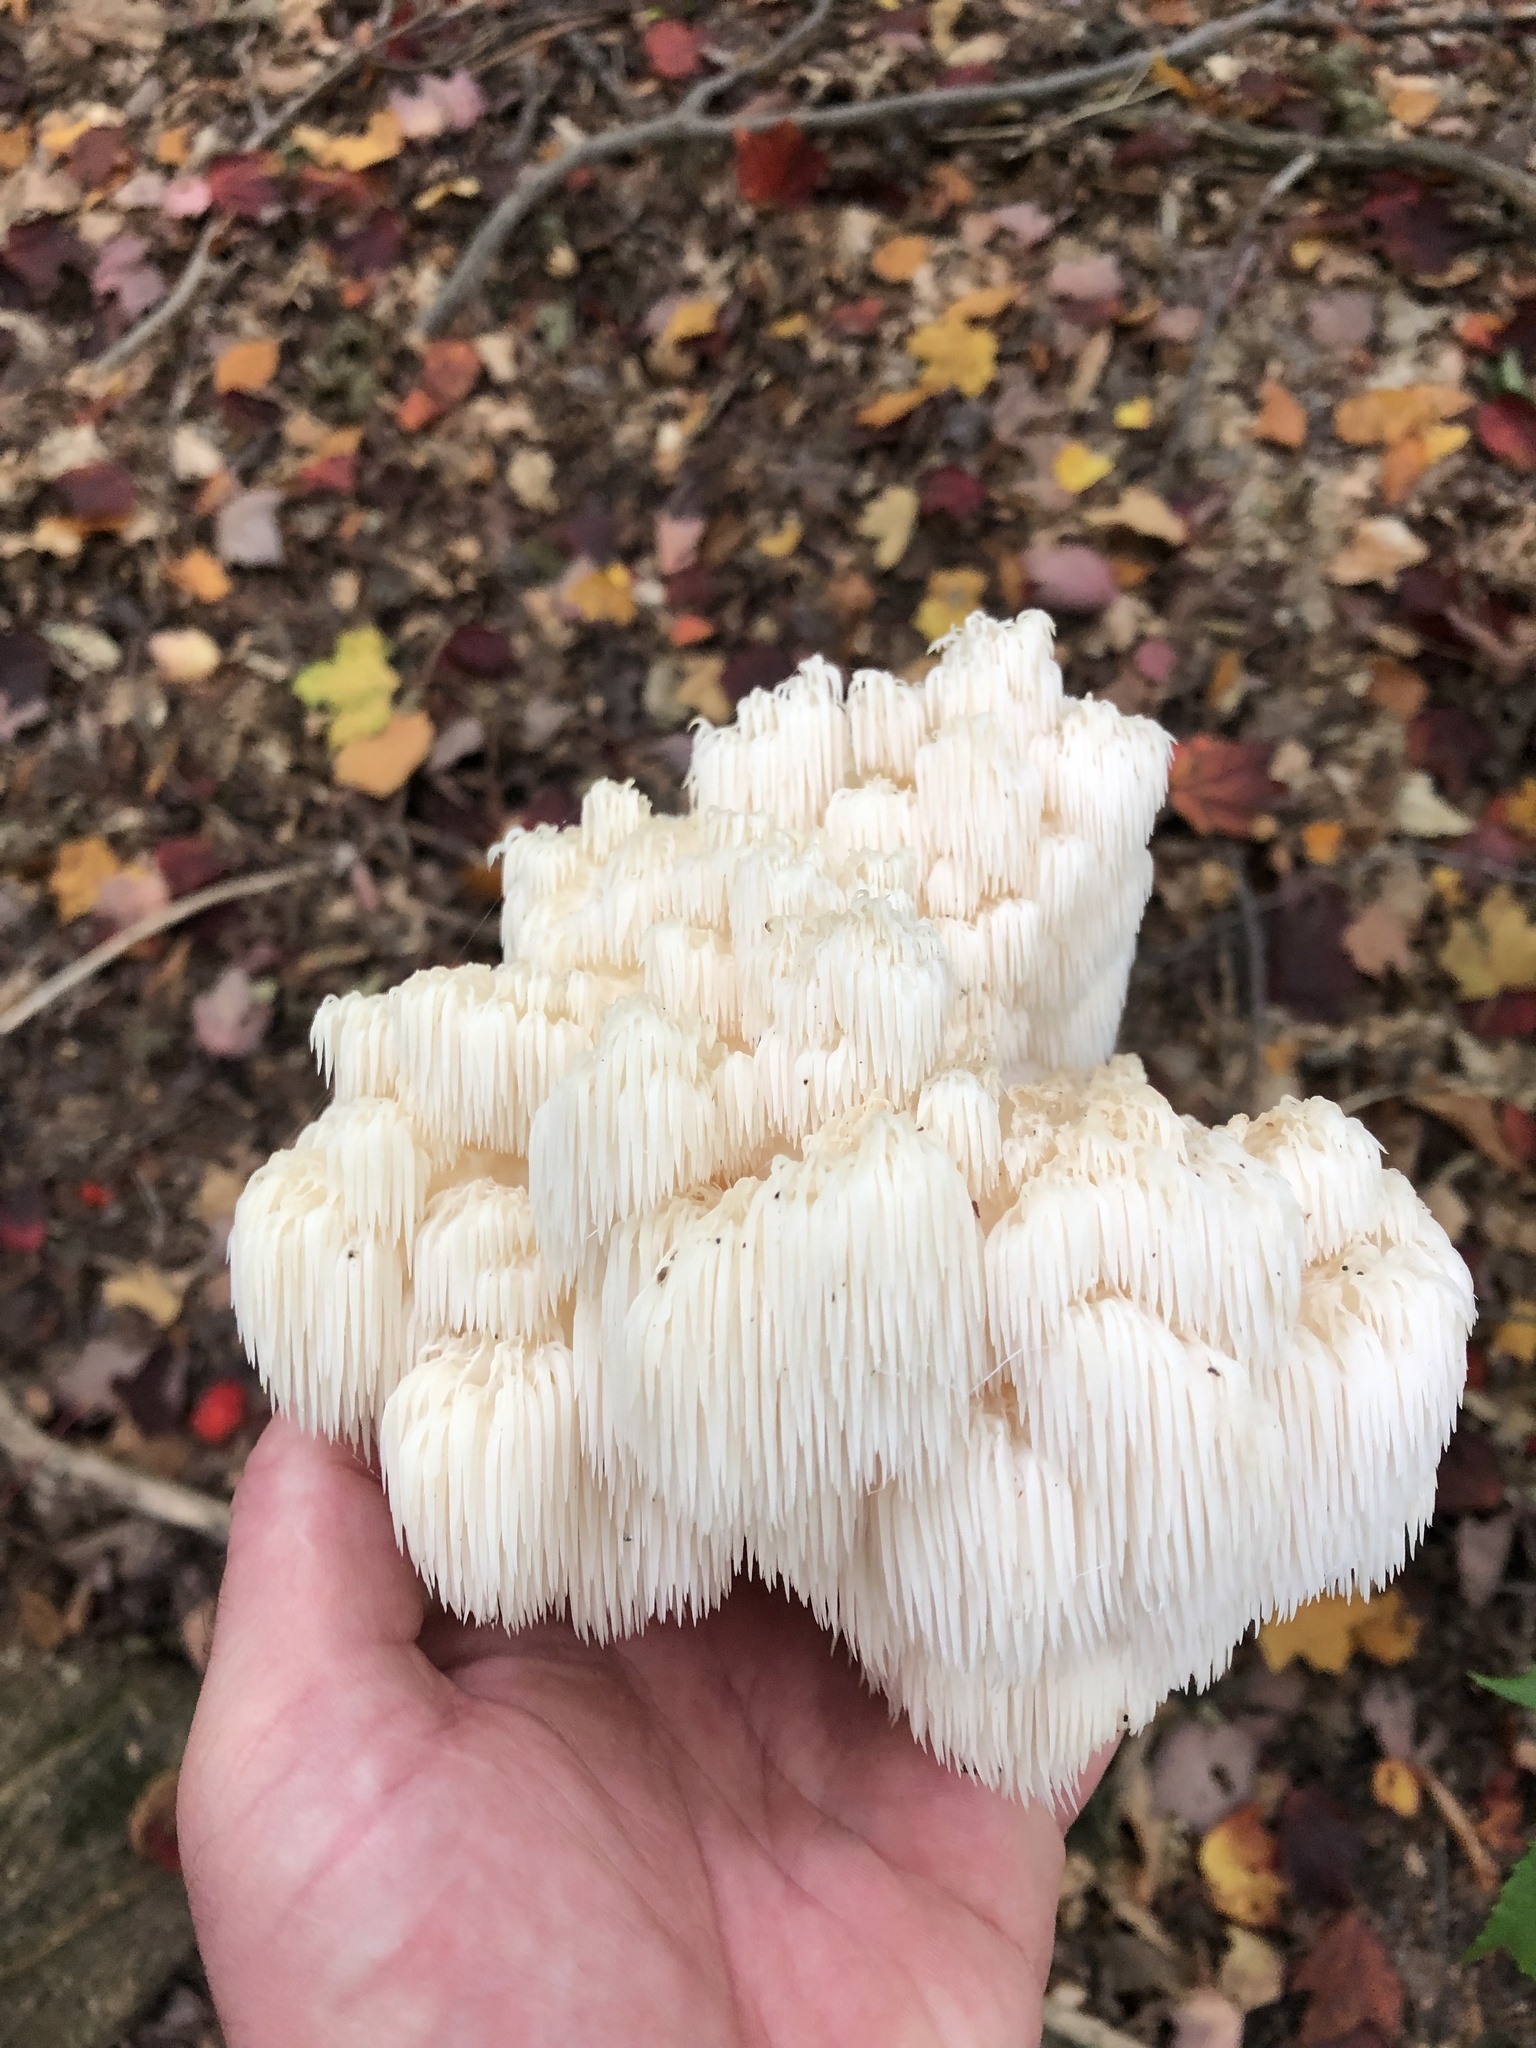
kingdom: Fungi
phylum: Basidiomycota
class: Agaricomycetes
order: Russulales
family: Hericiaceae
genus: Hericium
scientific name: Hericium americanum
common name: Bear's head tooth
